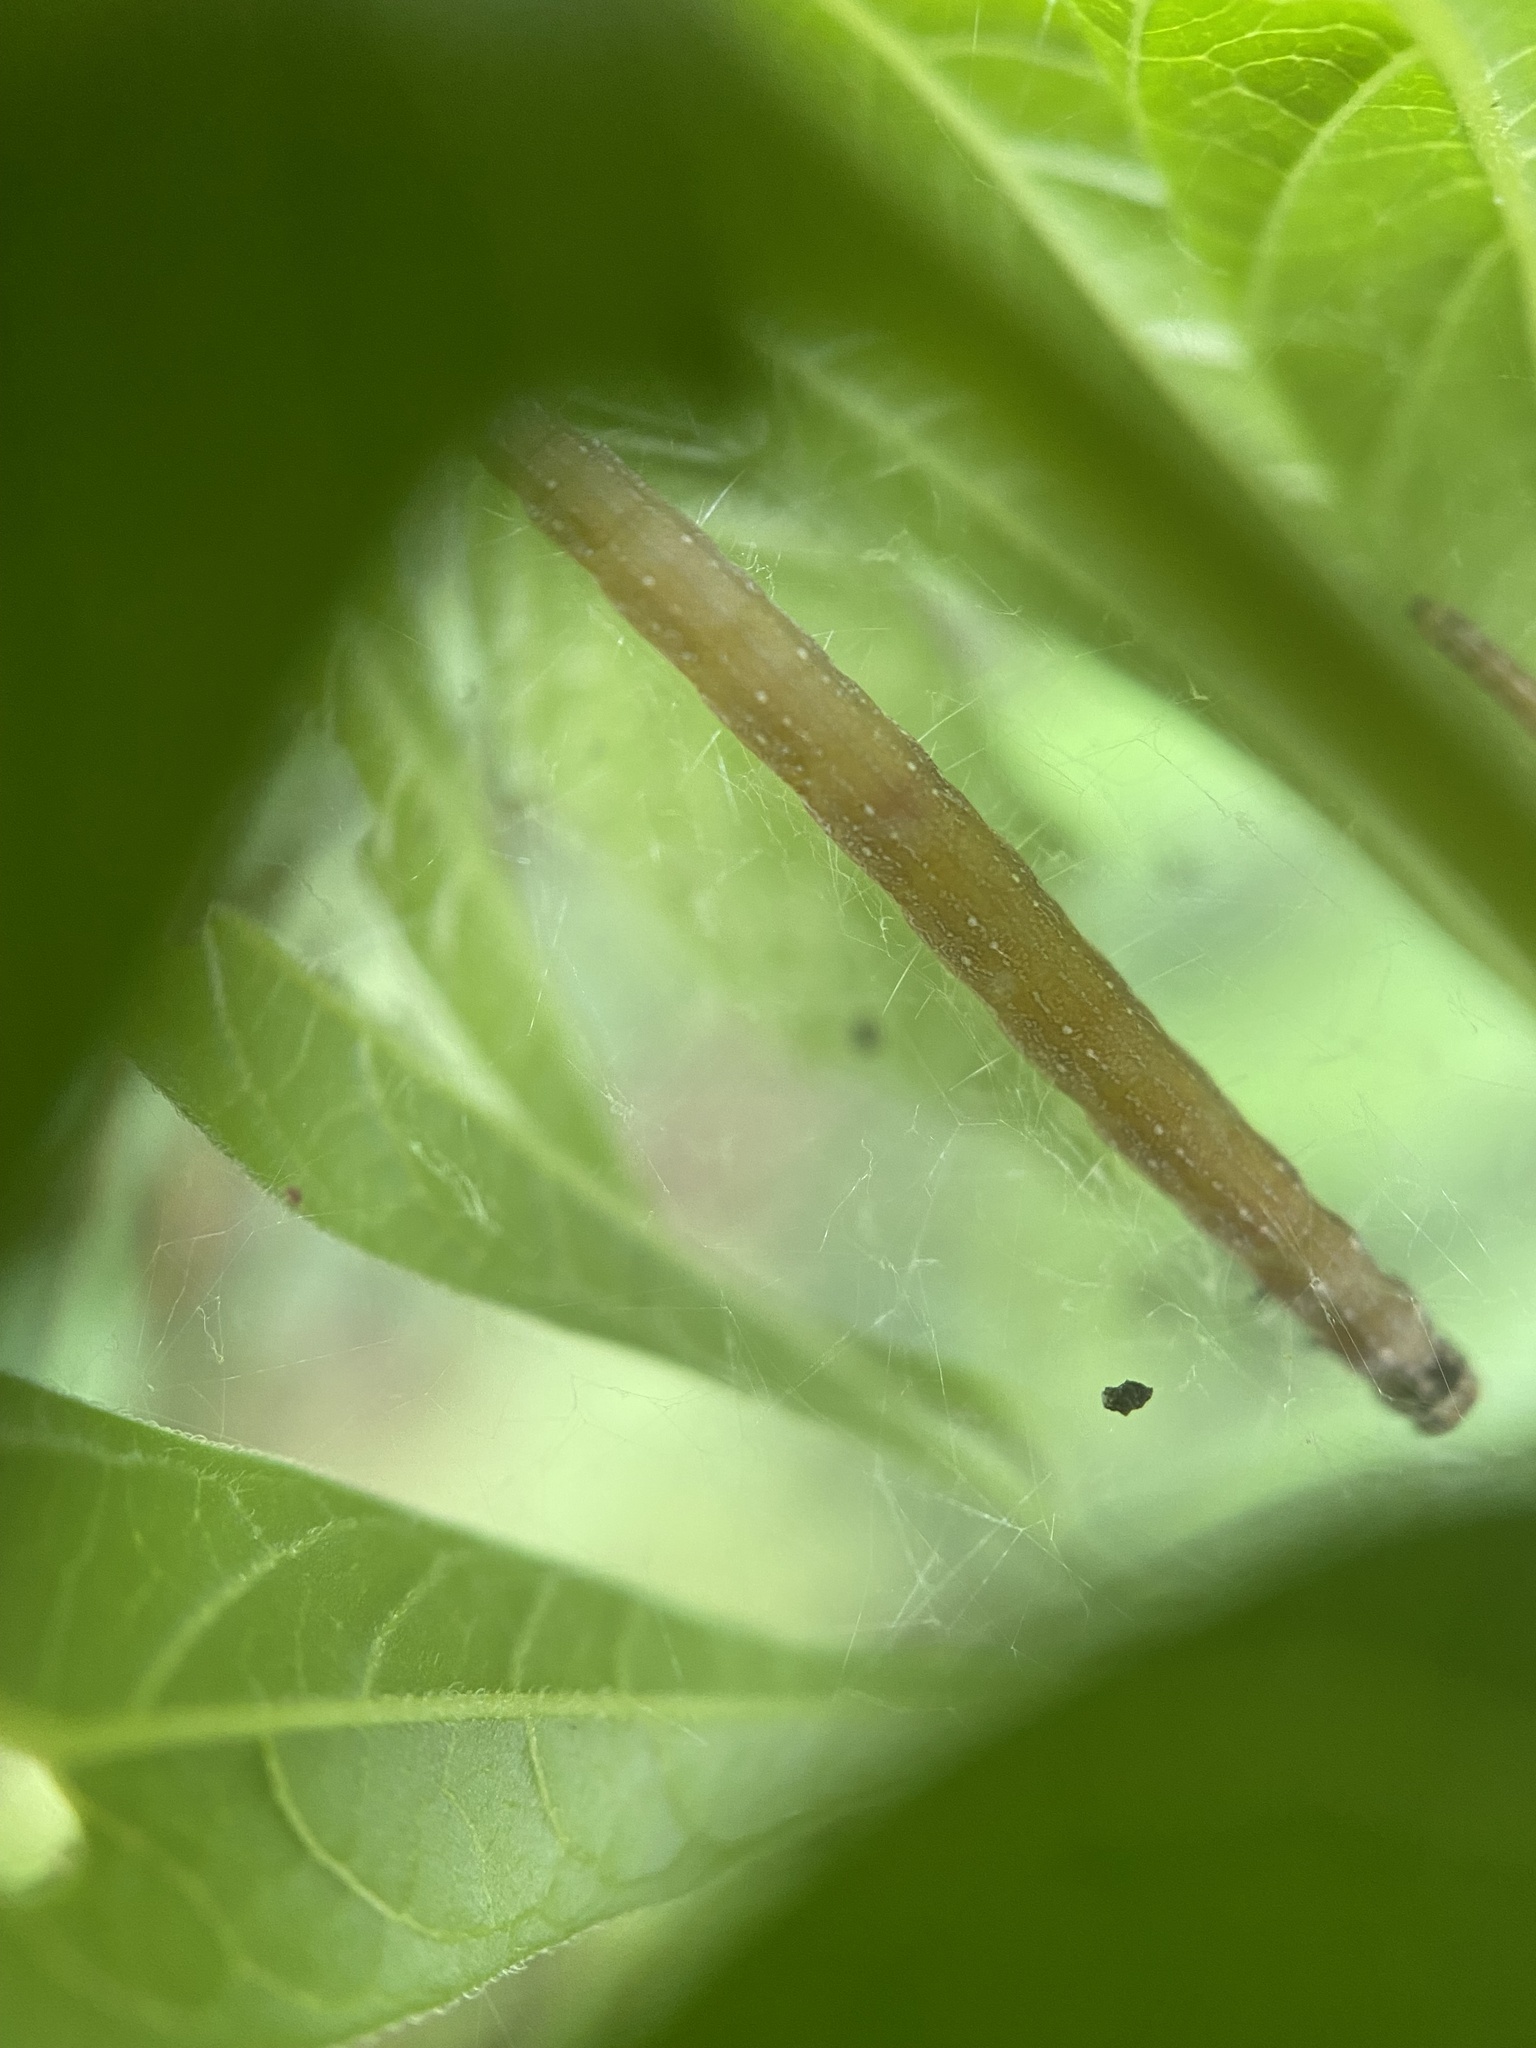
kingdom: Animalia
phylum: Arthropoda
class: Insecta
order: Lepidoptera
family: Attevidae
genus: Atteva
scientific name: Atteva punctella
